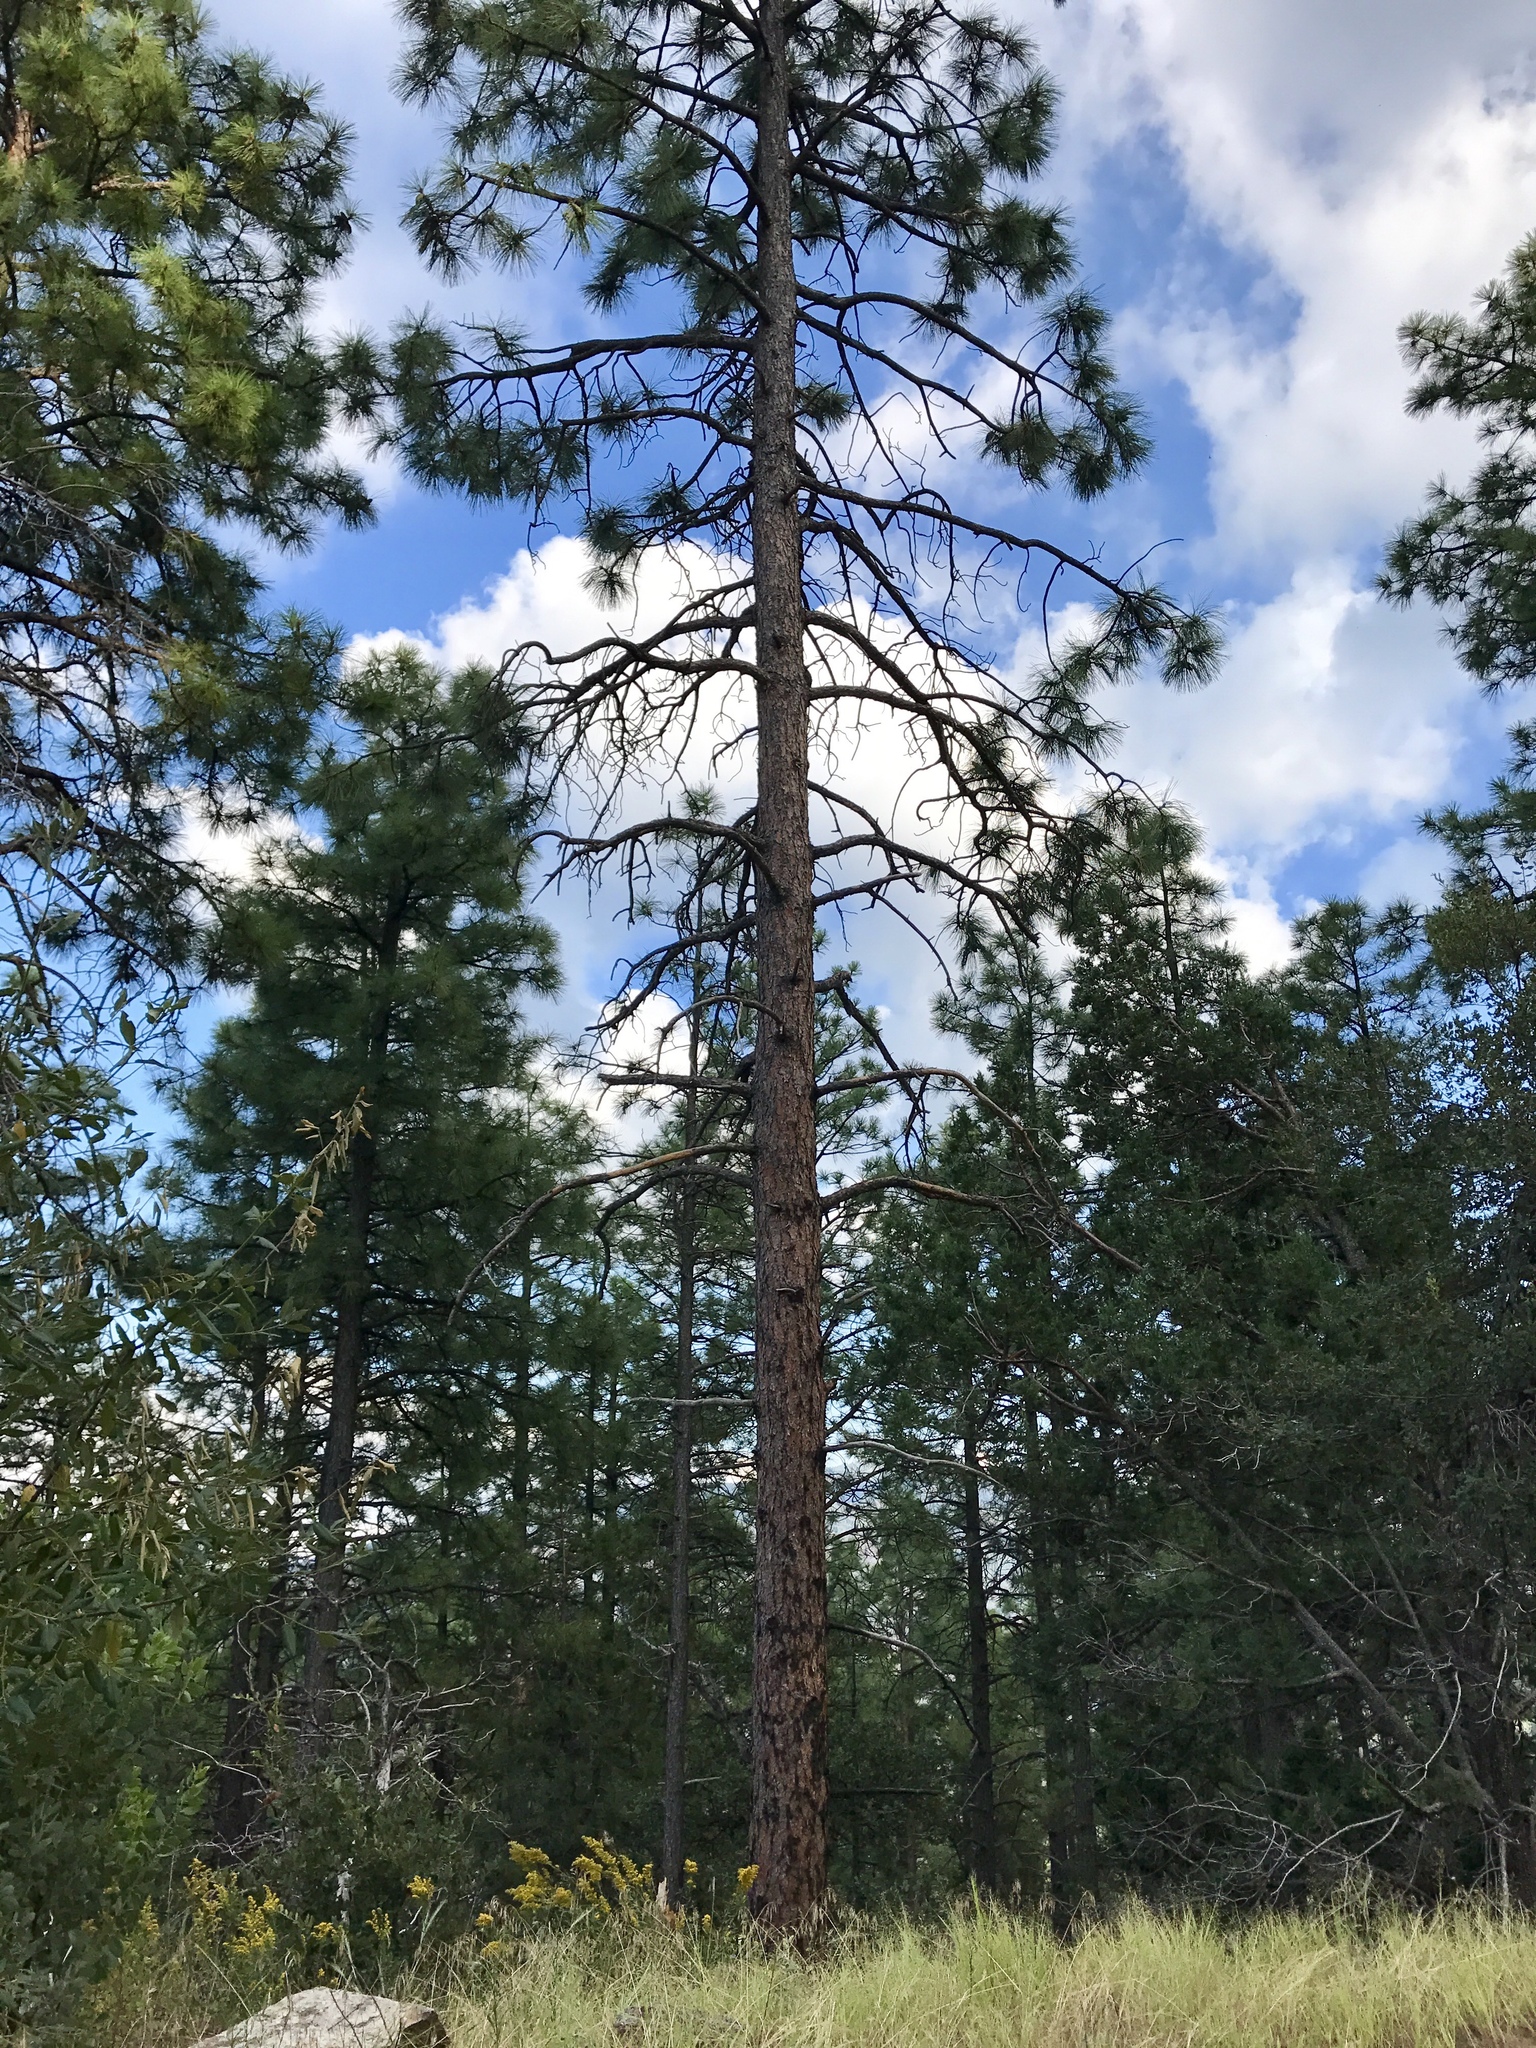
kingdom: Plantae
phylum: Tracheophyta
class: Pinopsida
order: Pinales
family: Pinaceae
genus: Pinus
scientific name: Pinus ponderosa
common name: Western yellow-pine
